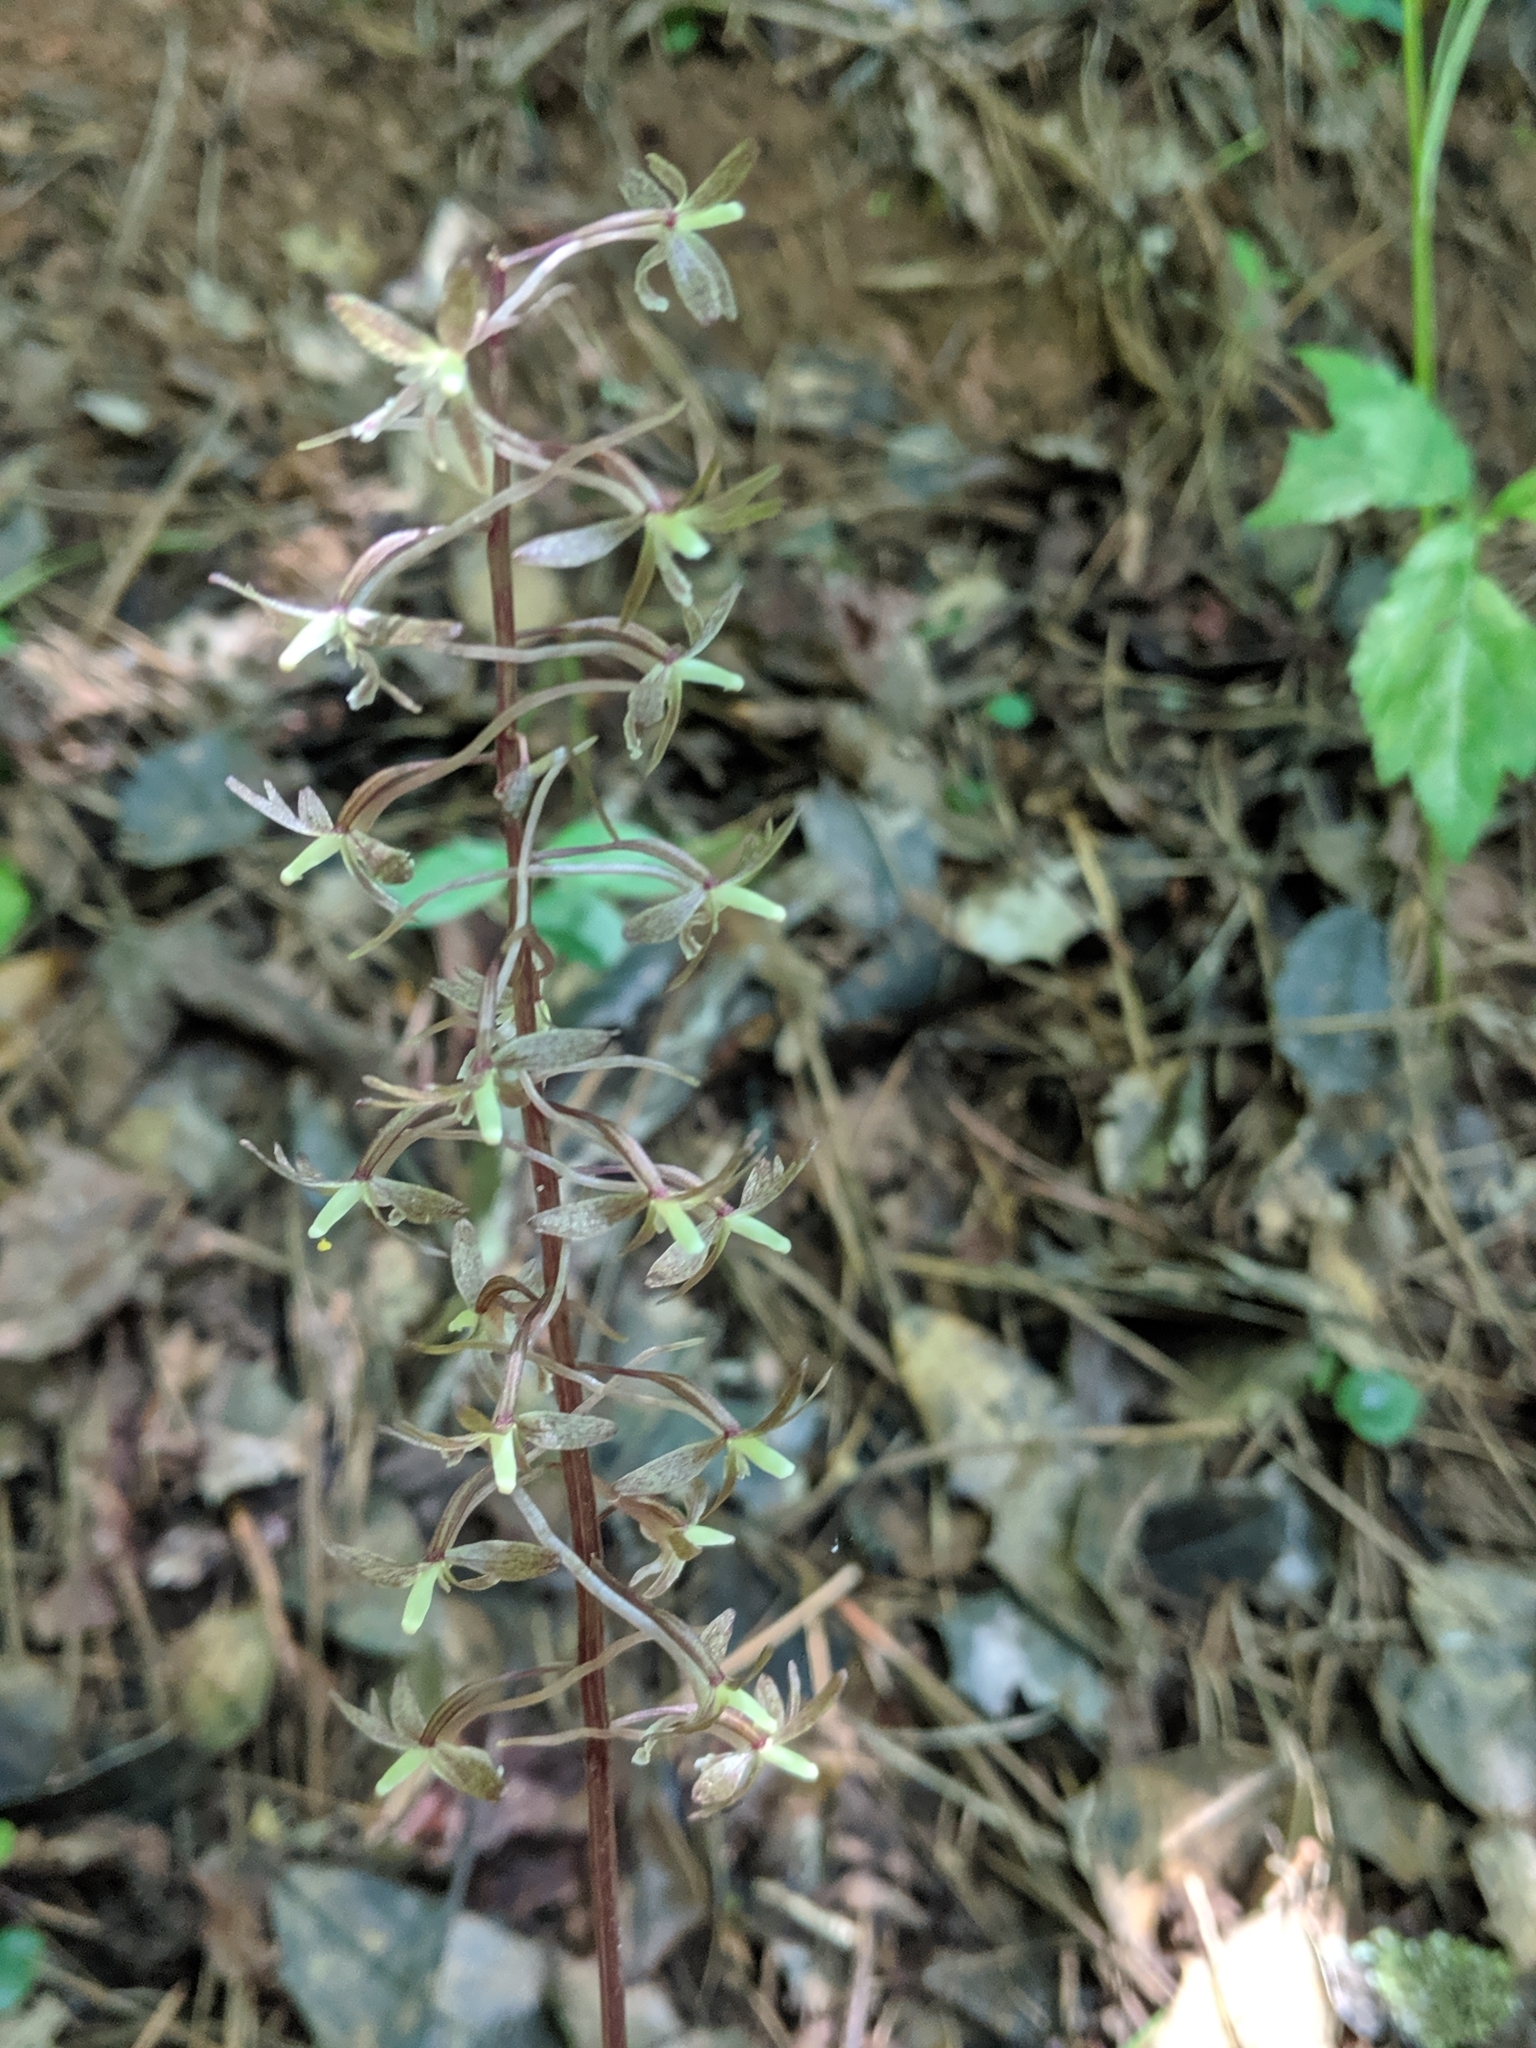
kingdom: Plantae
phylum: Tracheophyta
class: Liliopsida
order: Asparagales
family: Orchidaceae
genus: Tipularia
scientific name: Tipularia discolor
